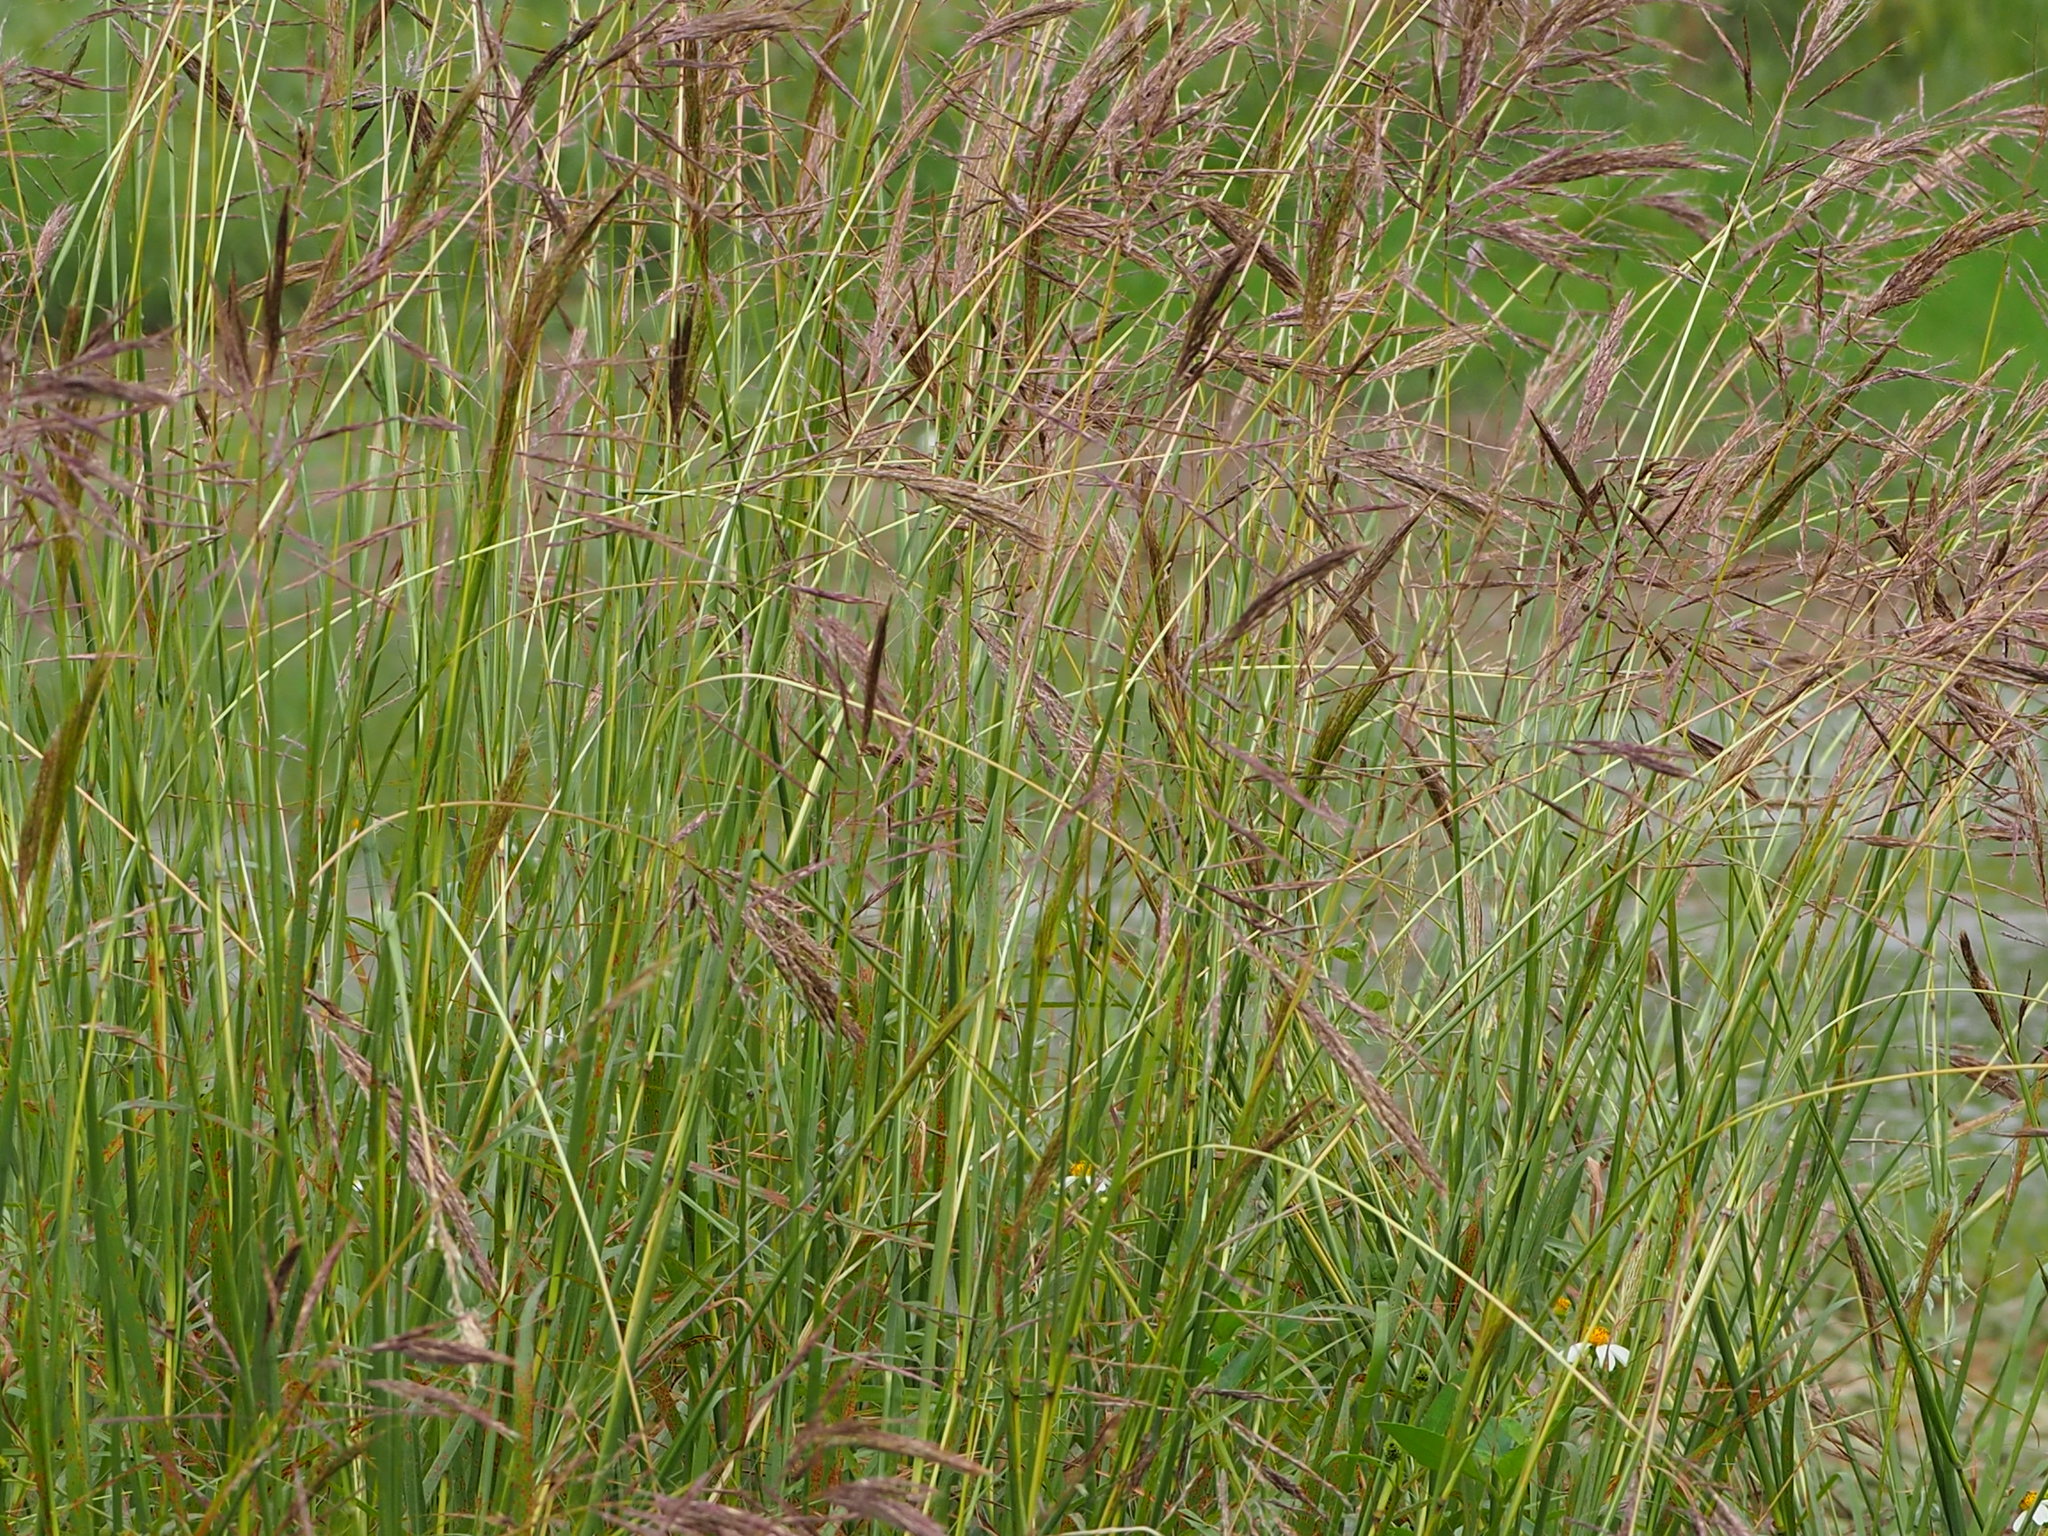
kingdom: Plantae
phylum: Tracheophyta
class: Liliopsida
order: Poales
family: Poaceae
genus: Bothriochloa
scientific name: Bothriochloa glabra
